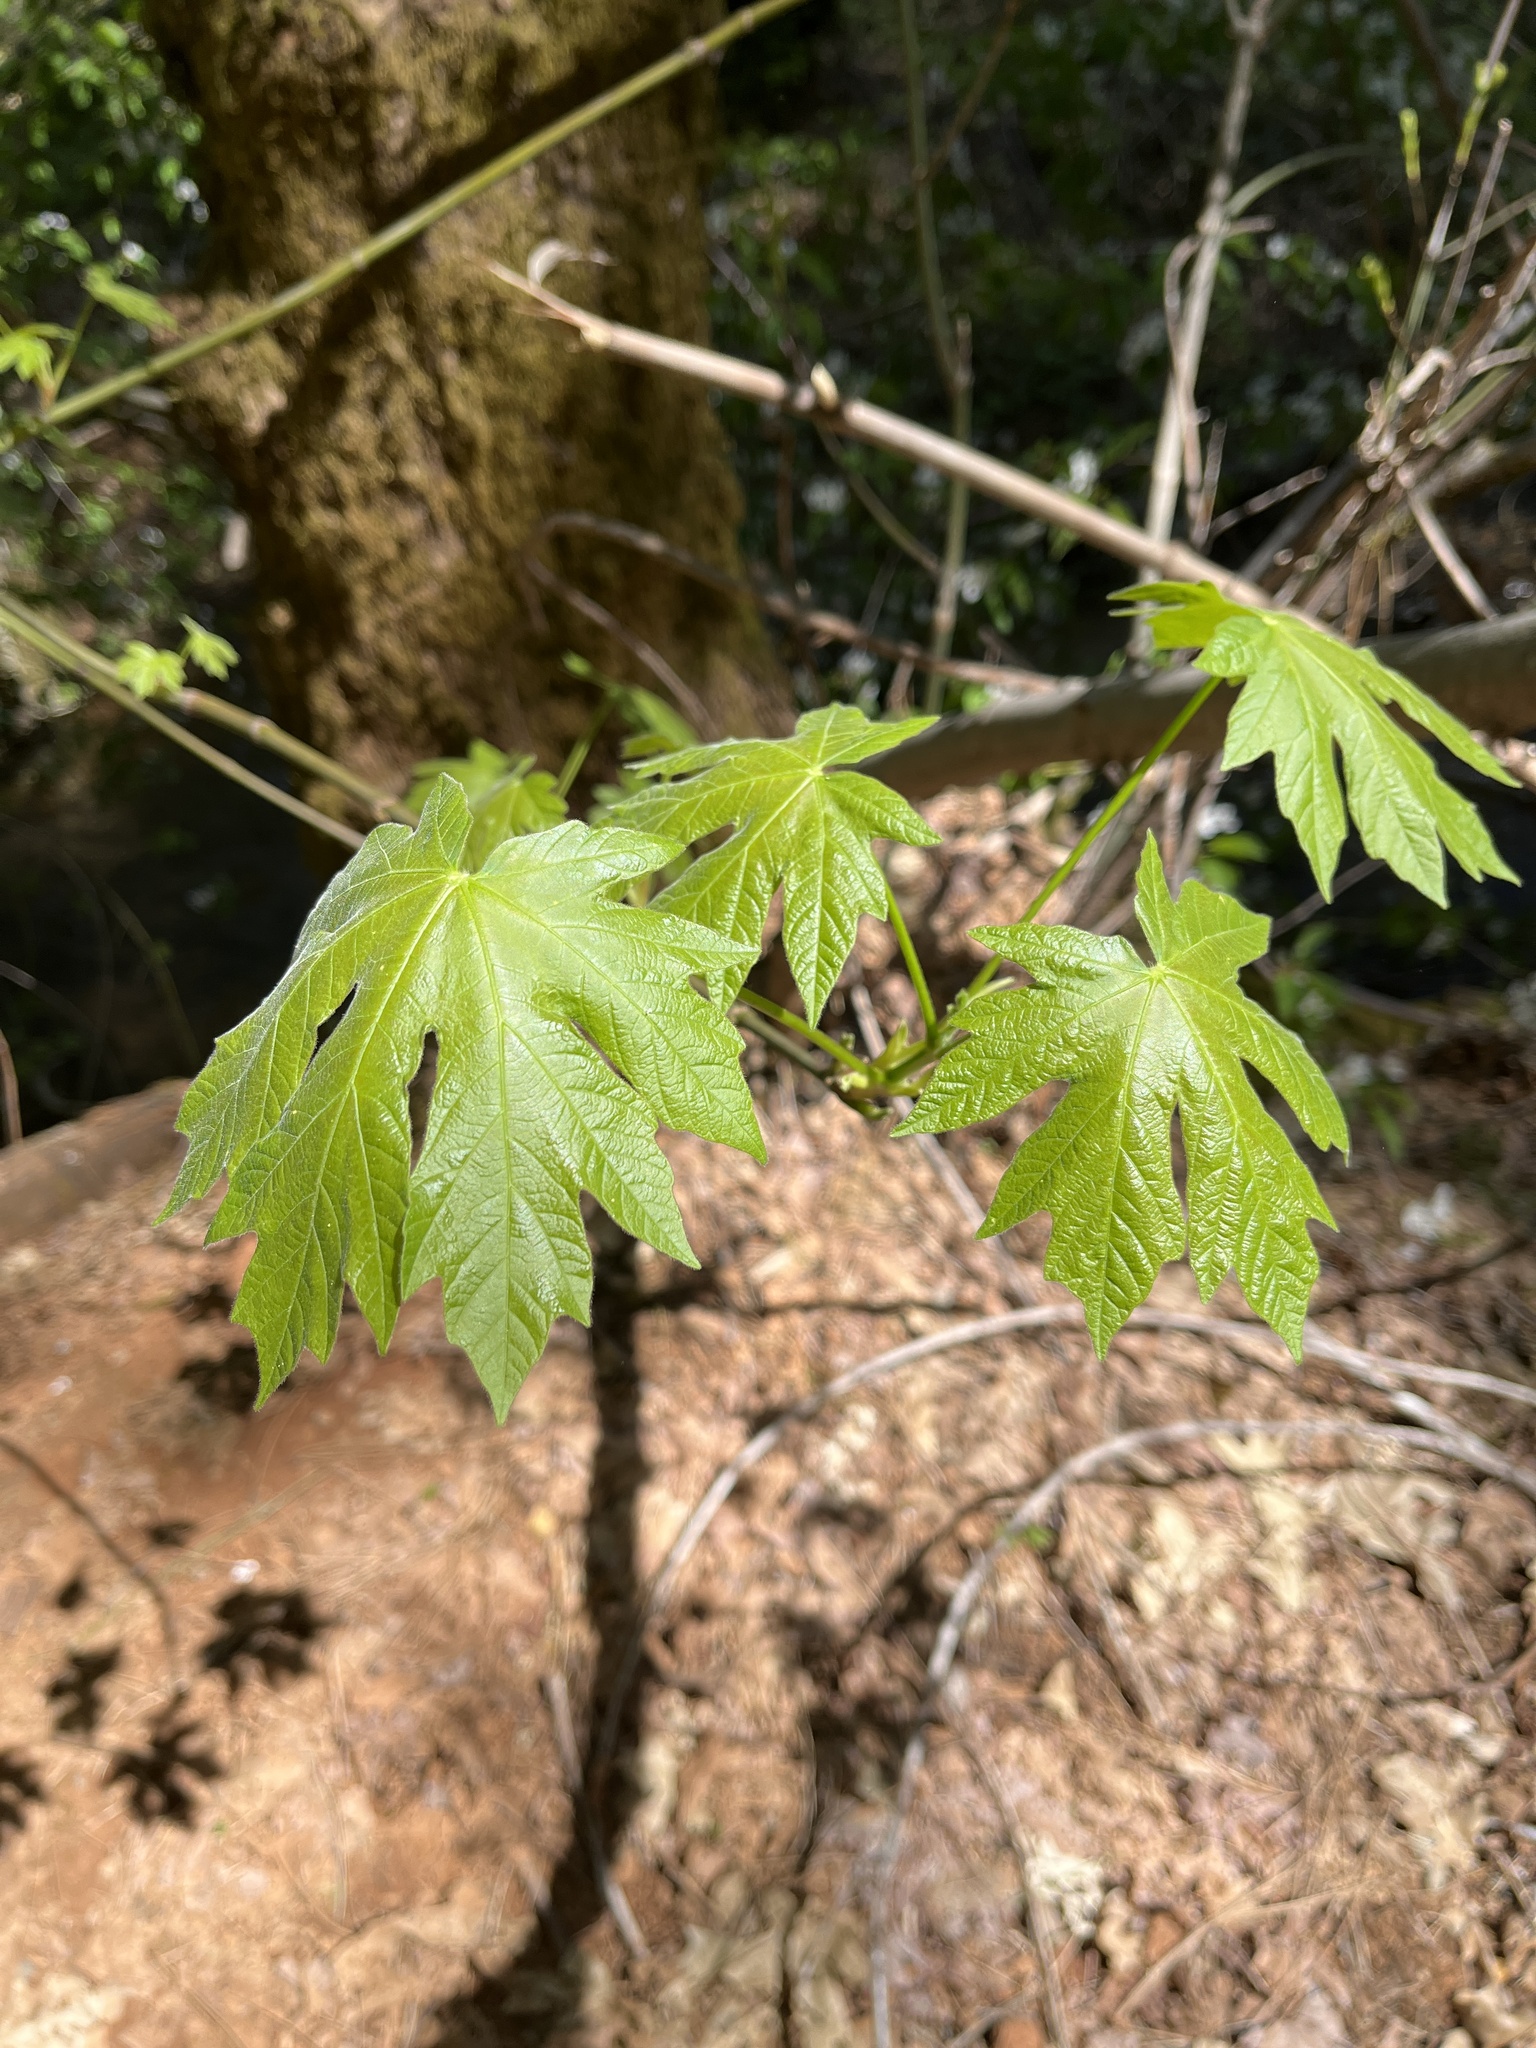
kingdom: Plantae
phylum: Tracheophyta
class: Magnoliopsida
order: Sapindales
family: Sapindaceae
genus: Acer
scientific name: Acer macrophyllum
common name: Oregon maple
